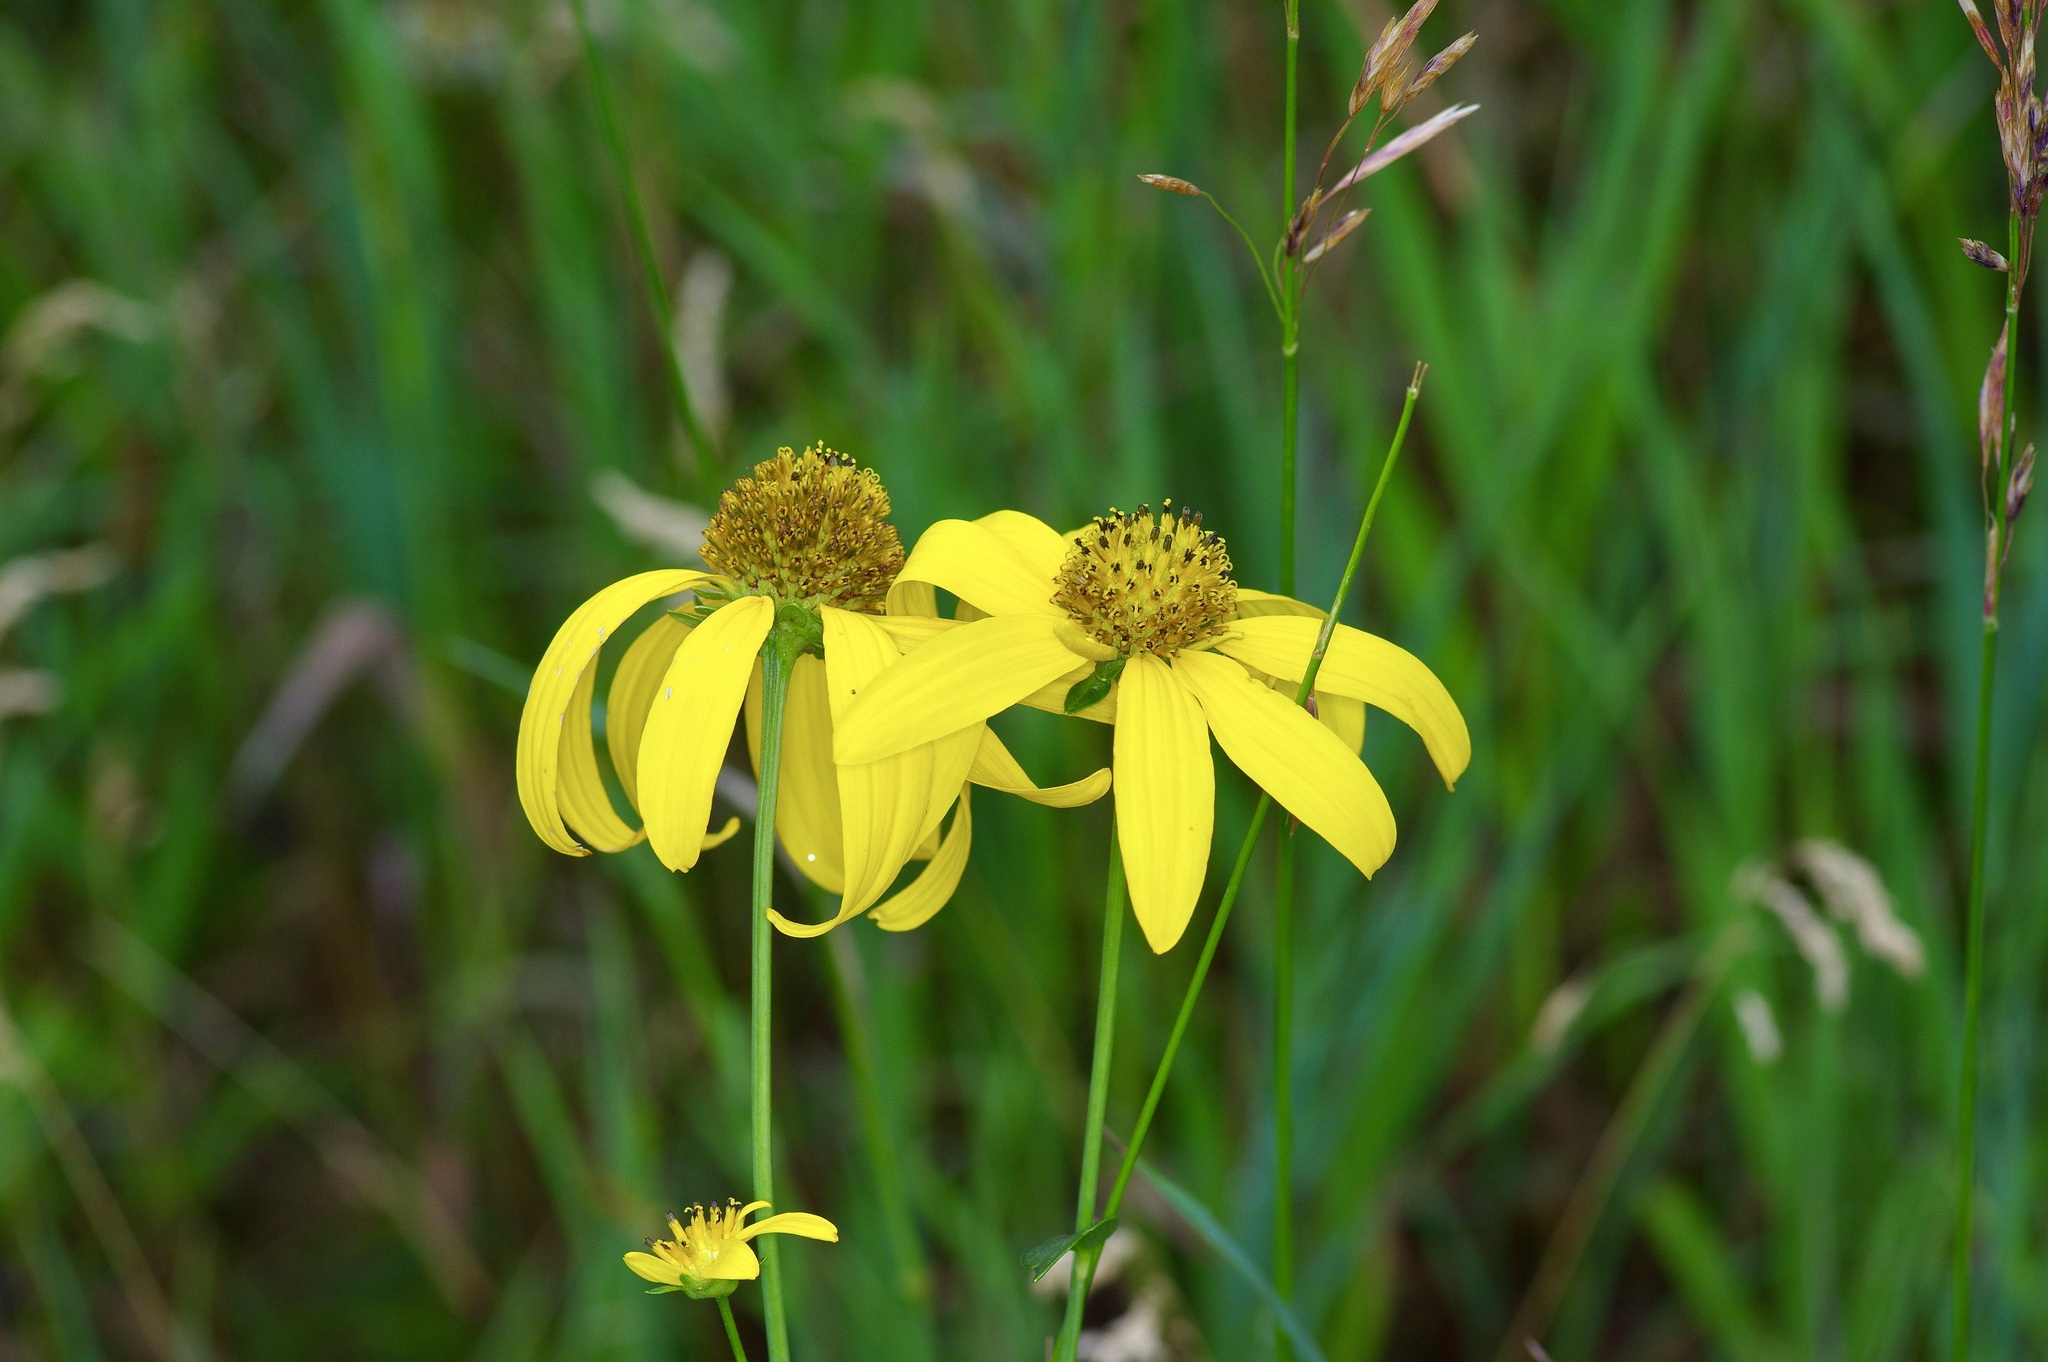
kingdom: Plantae
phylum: Tracheophyta
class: Magnoliopsida
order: Asterales
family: Asteraceae
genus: Rudbeckia
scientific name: Rudbeckia laciniata
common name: Coneflower
